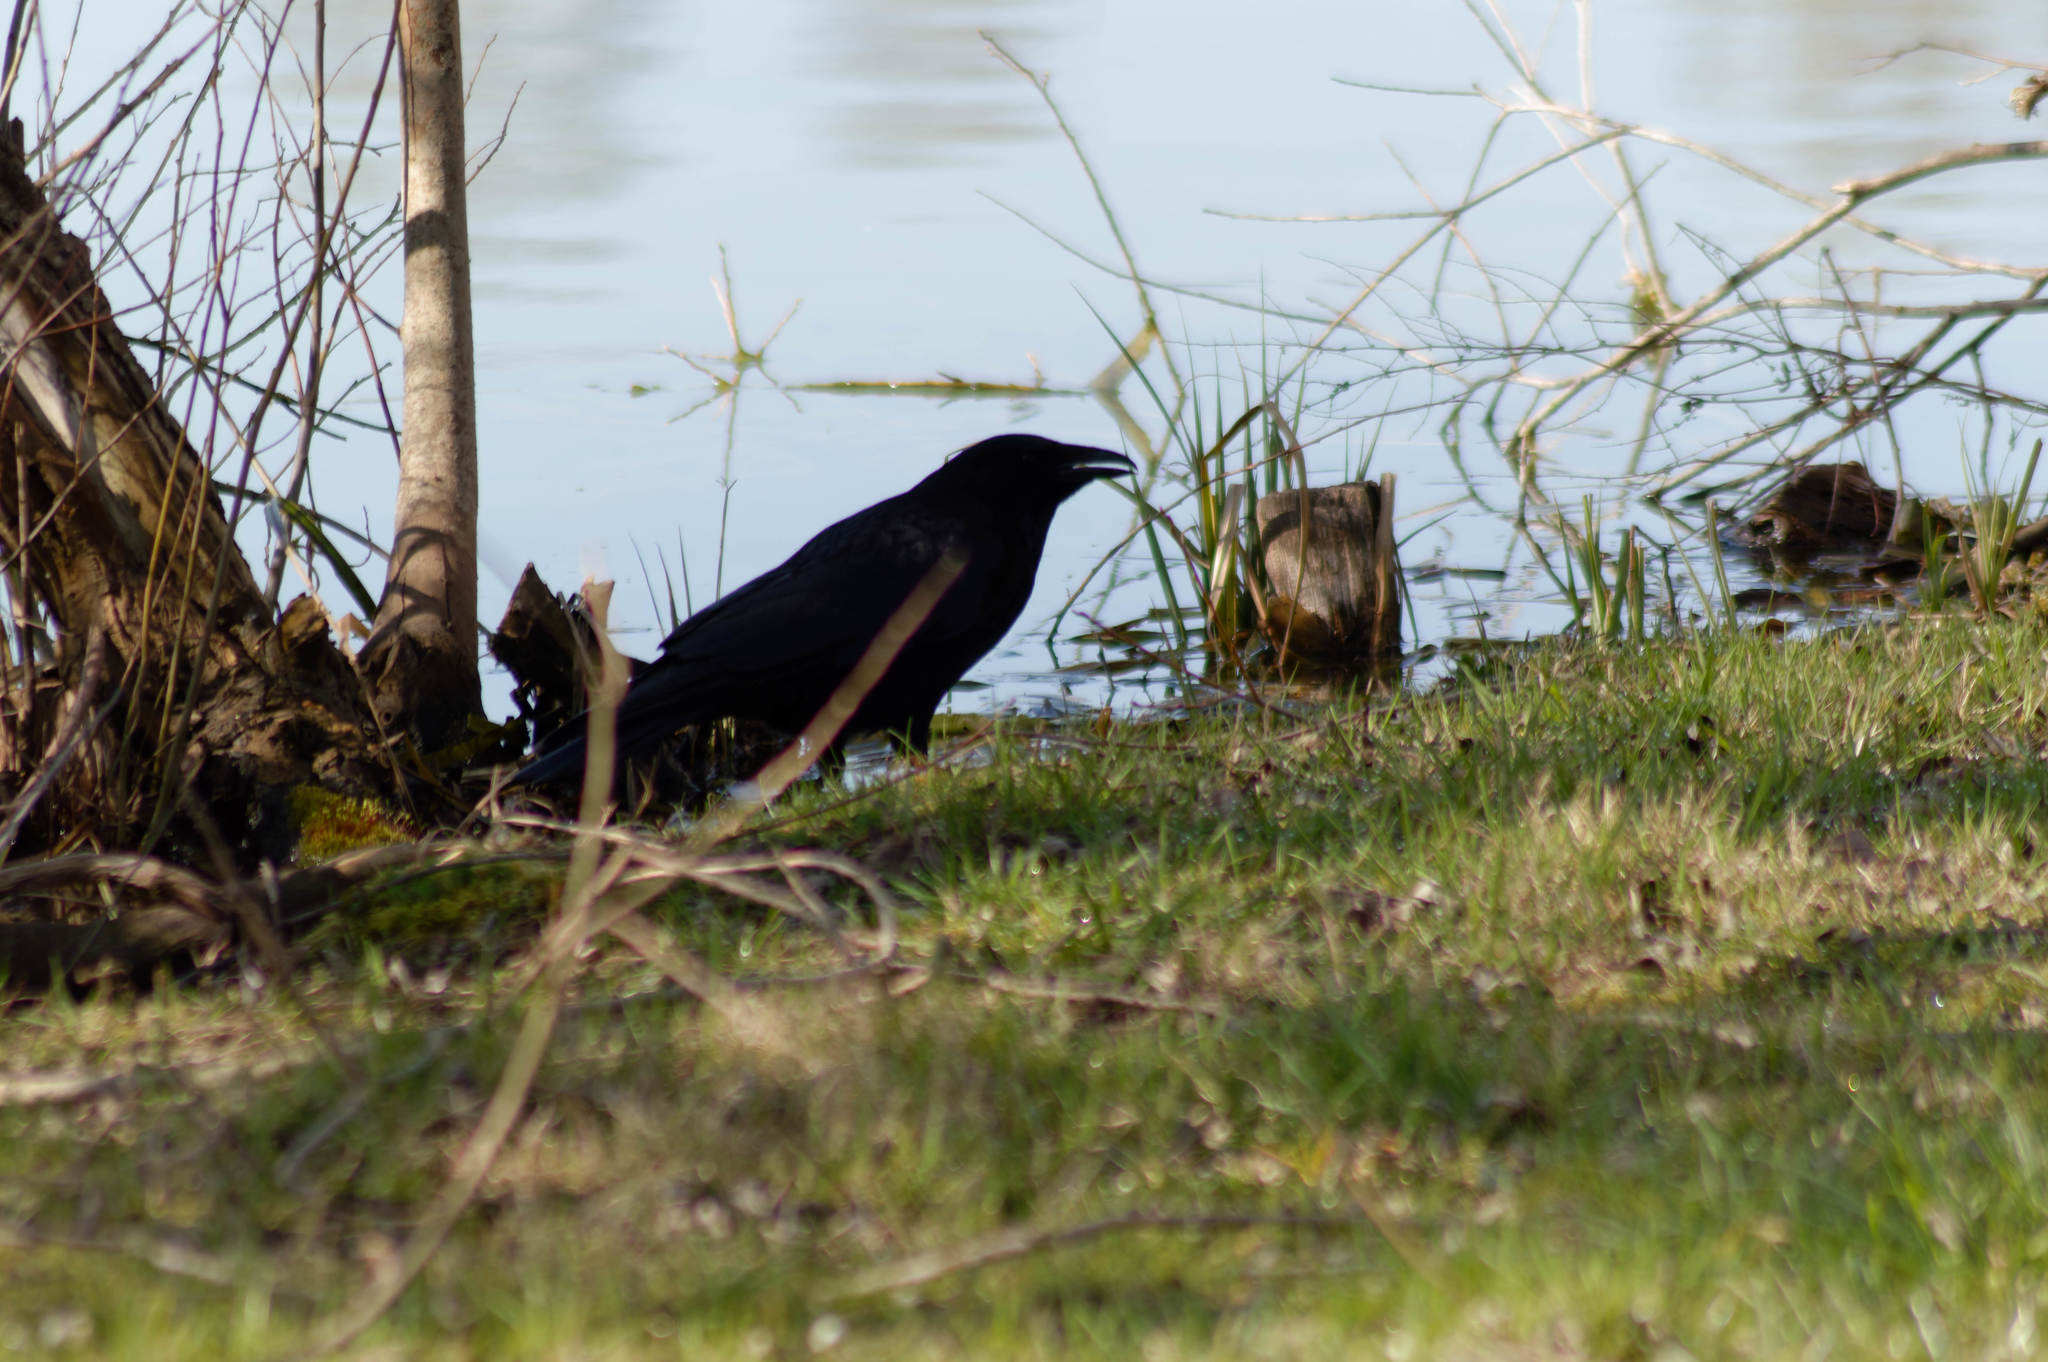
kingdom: Animalia
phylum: Chordata
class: Aves
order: Passeriformes
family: Corvidae
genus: Corvus
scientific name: Corvus corone
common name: Carrion crow
